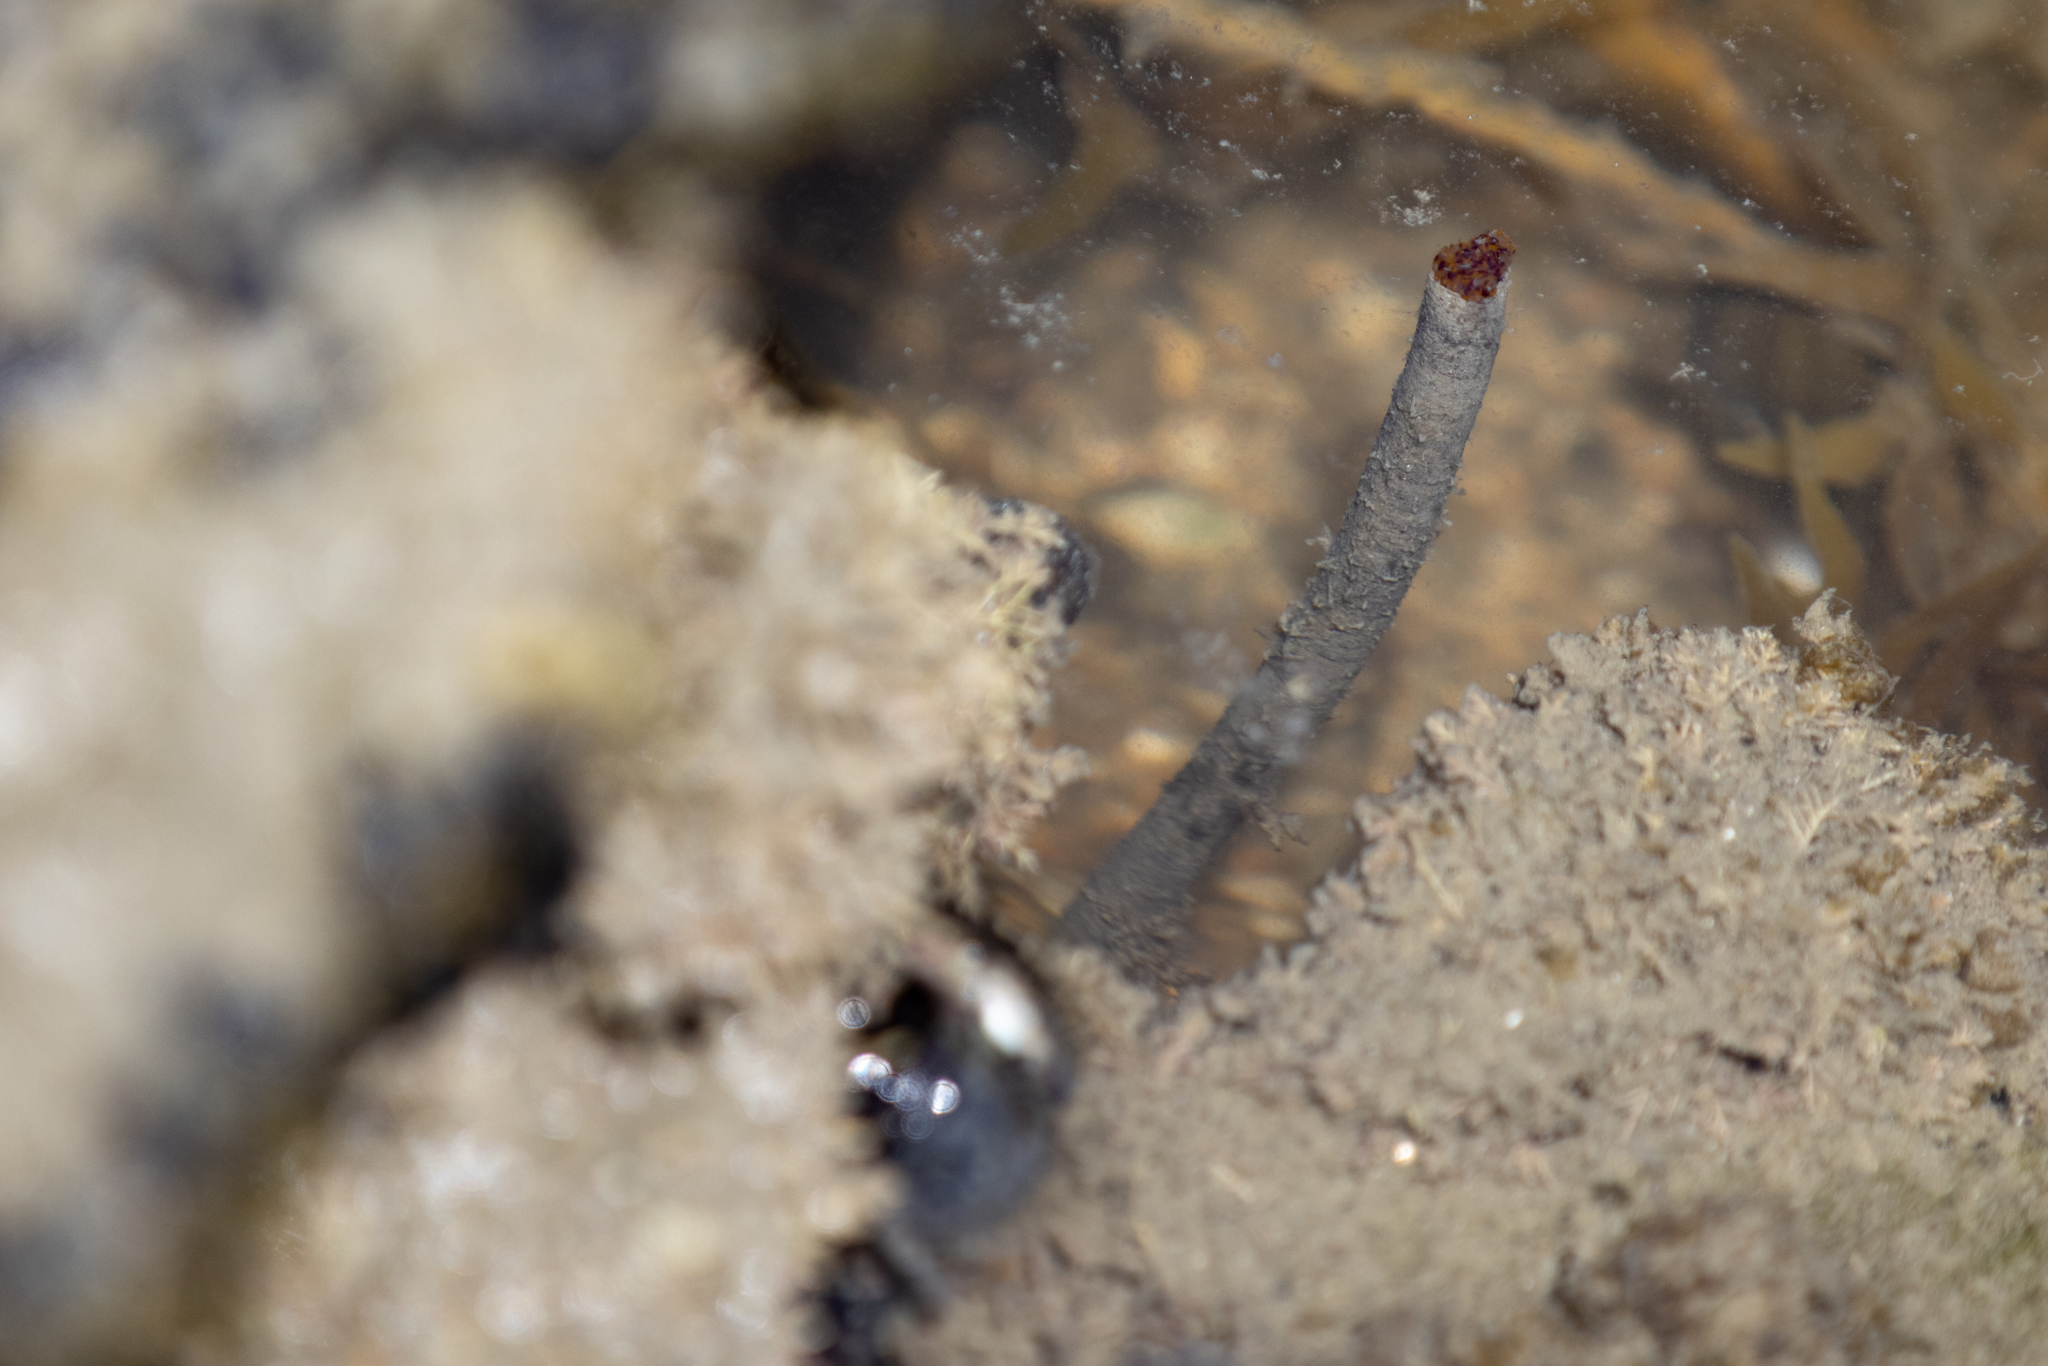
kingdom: Animalia
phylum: Annelida
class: Polychaeta
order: Sabellida
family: Sabellidae
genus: Sabella
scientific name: Sabella spallanzanii
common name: Feather duster worm
